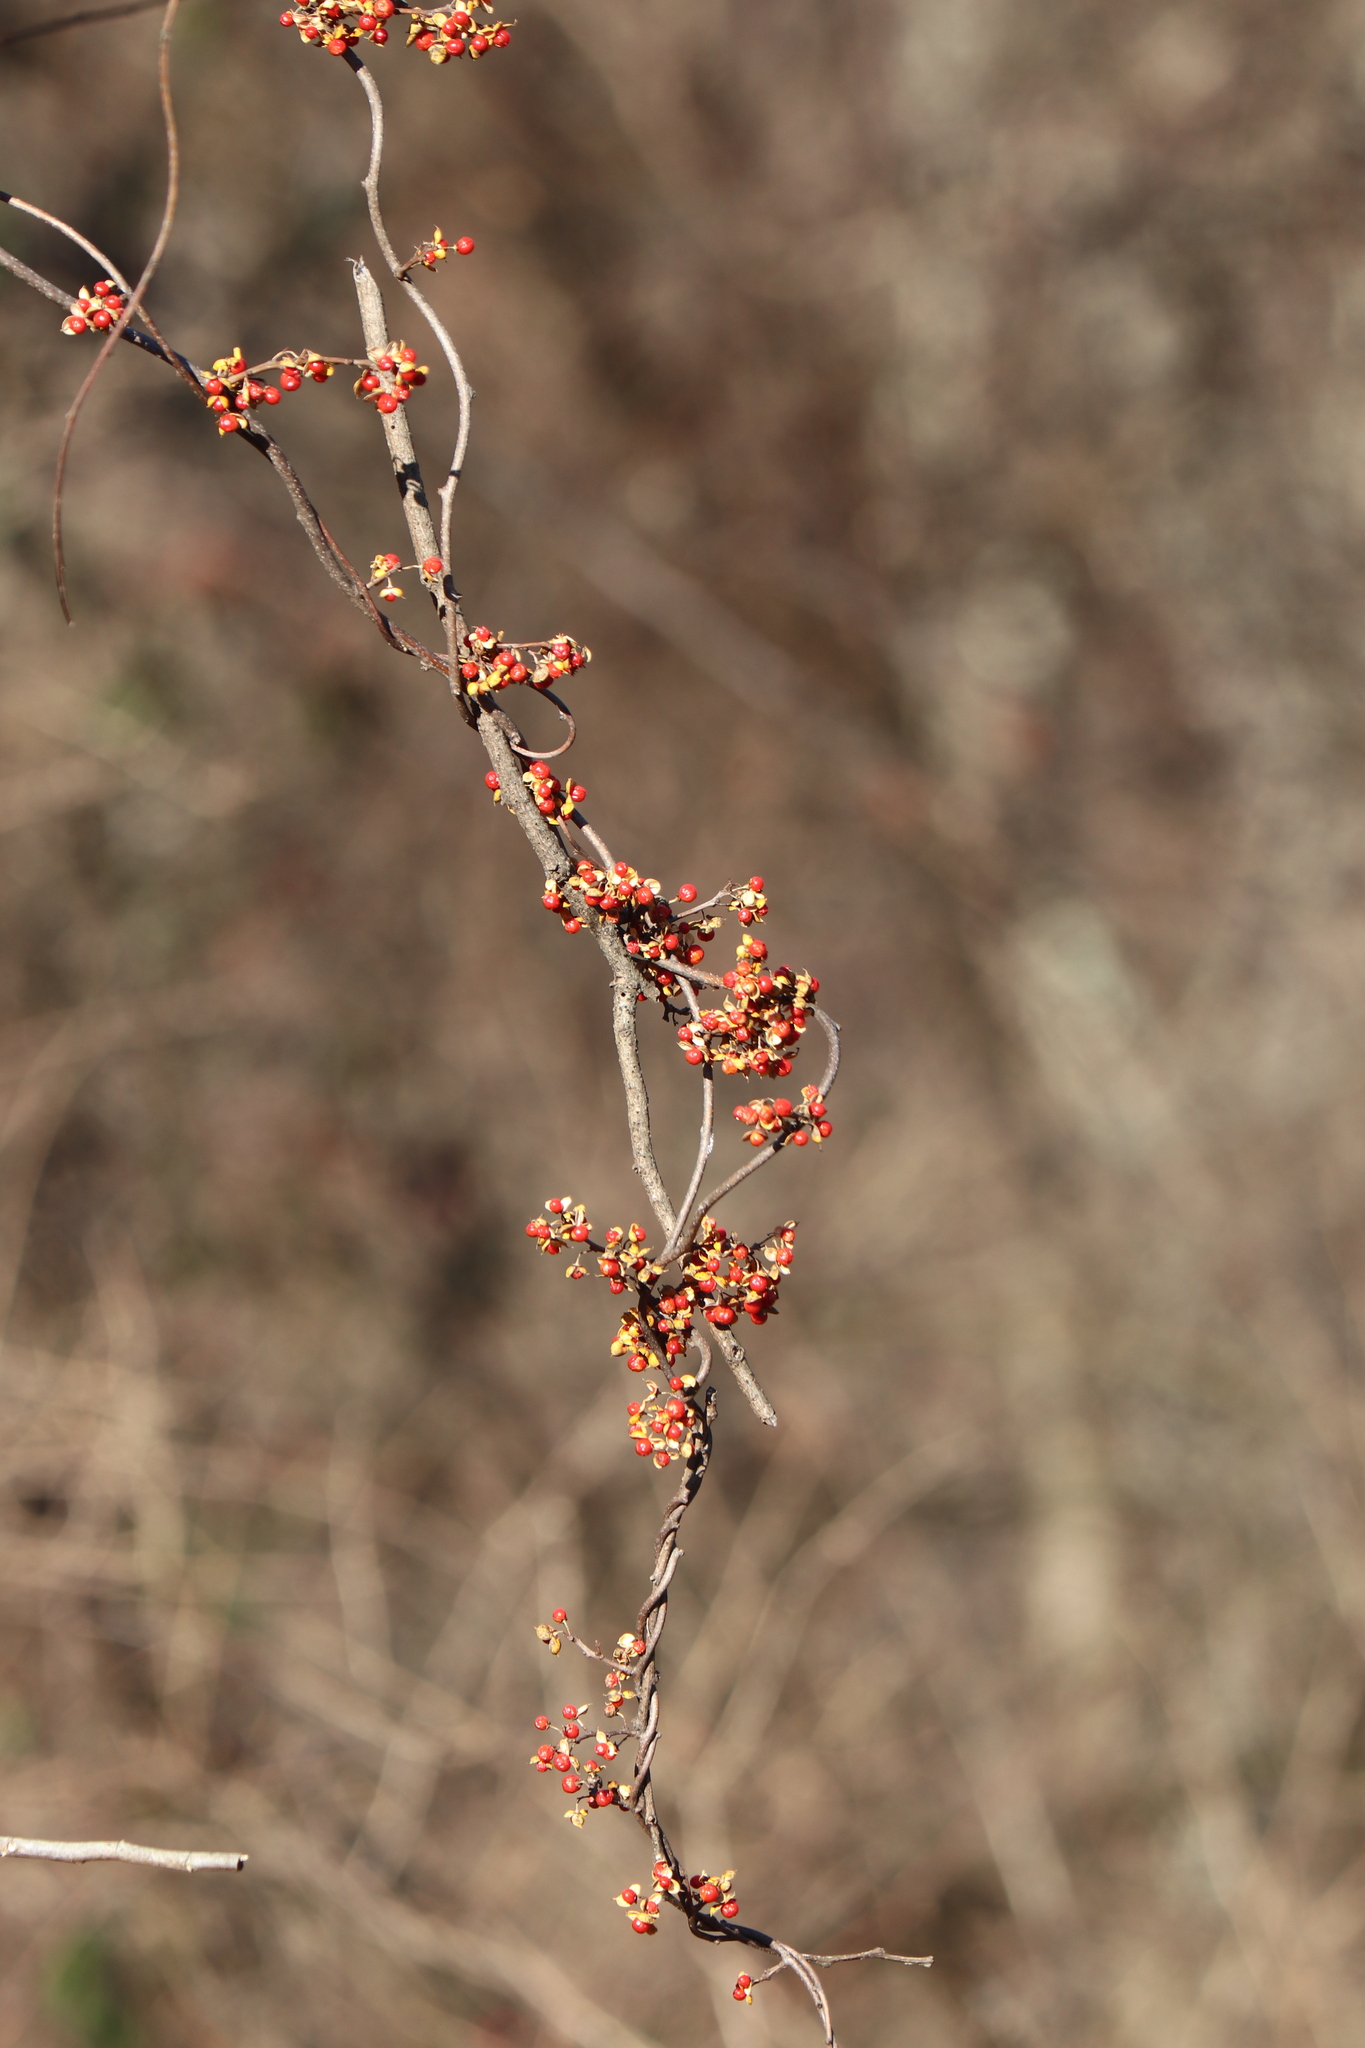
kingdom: Plantae
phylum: Tracheophyta
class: Magnoliopsida
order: Celastrales
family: Celastraceae
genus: Celastrus
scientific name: Celastrus orbiculatus
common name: Oriental bittersweet
